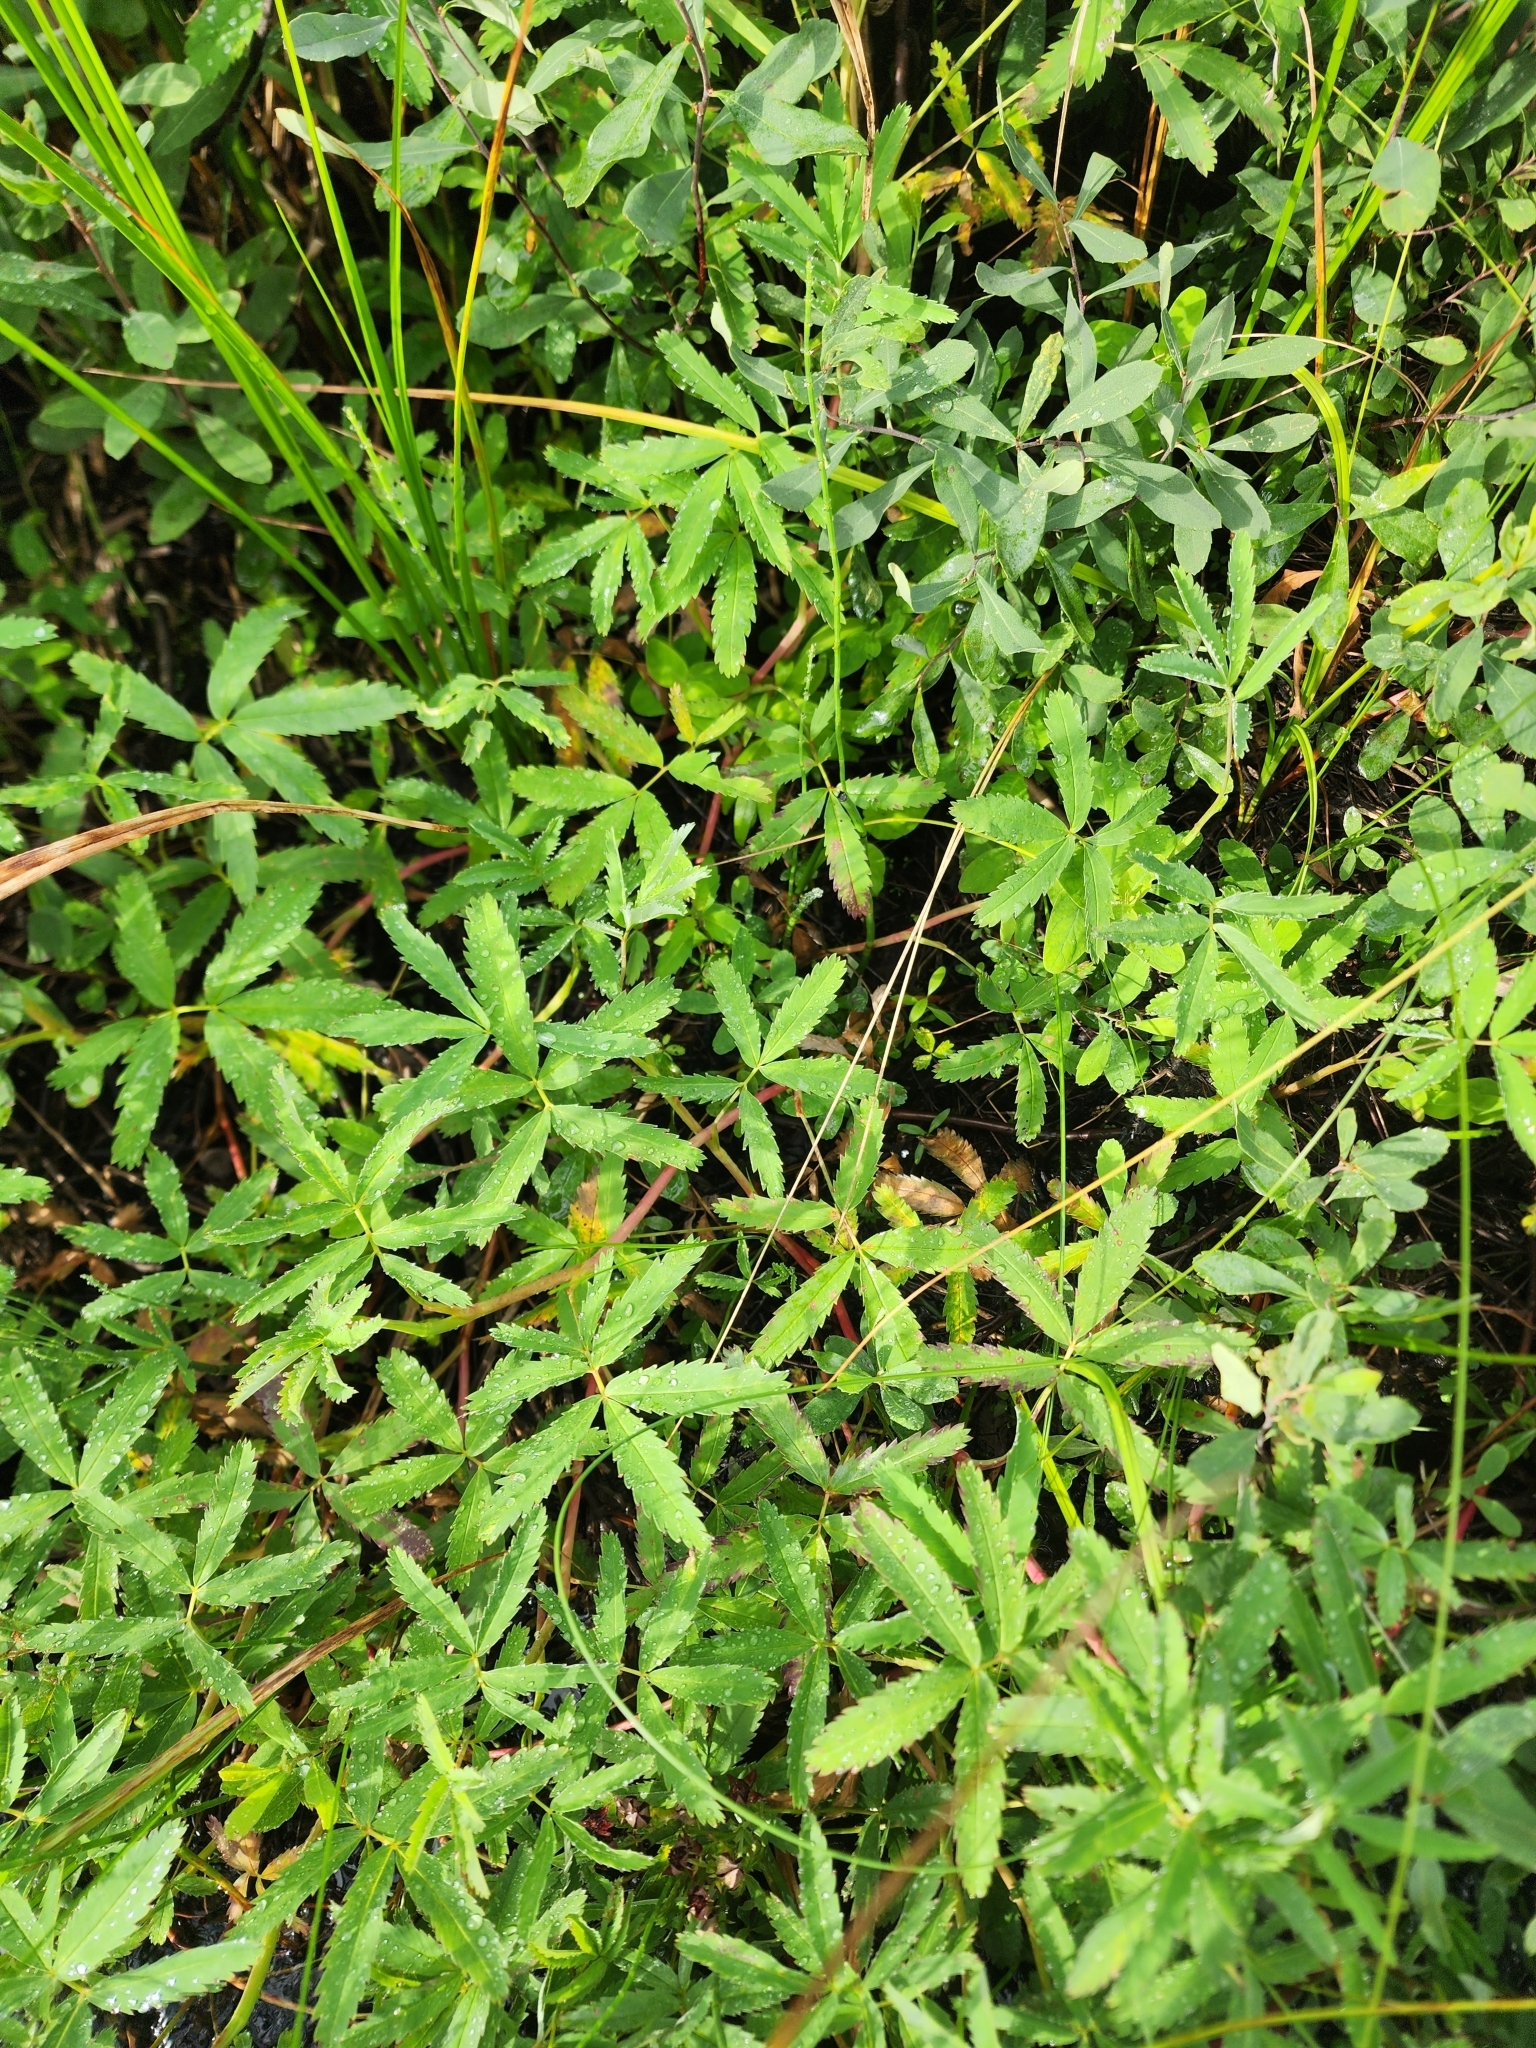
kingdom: Plantae
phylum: Tracheophyta
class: Magnoliopsida
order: Rosales
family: Rosaceae
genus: Comarum
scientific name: Comarum palustre
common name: Marsh cinquefoil
